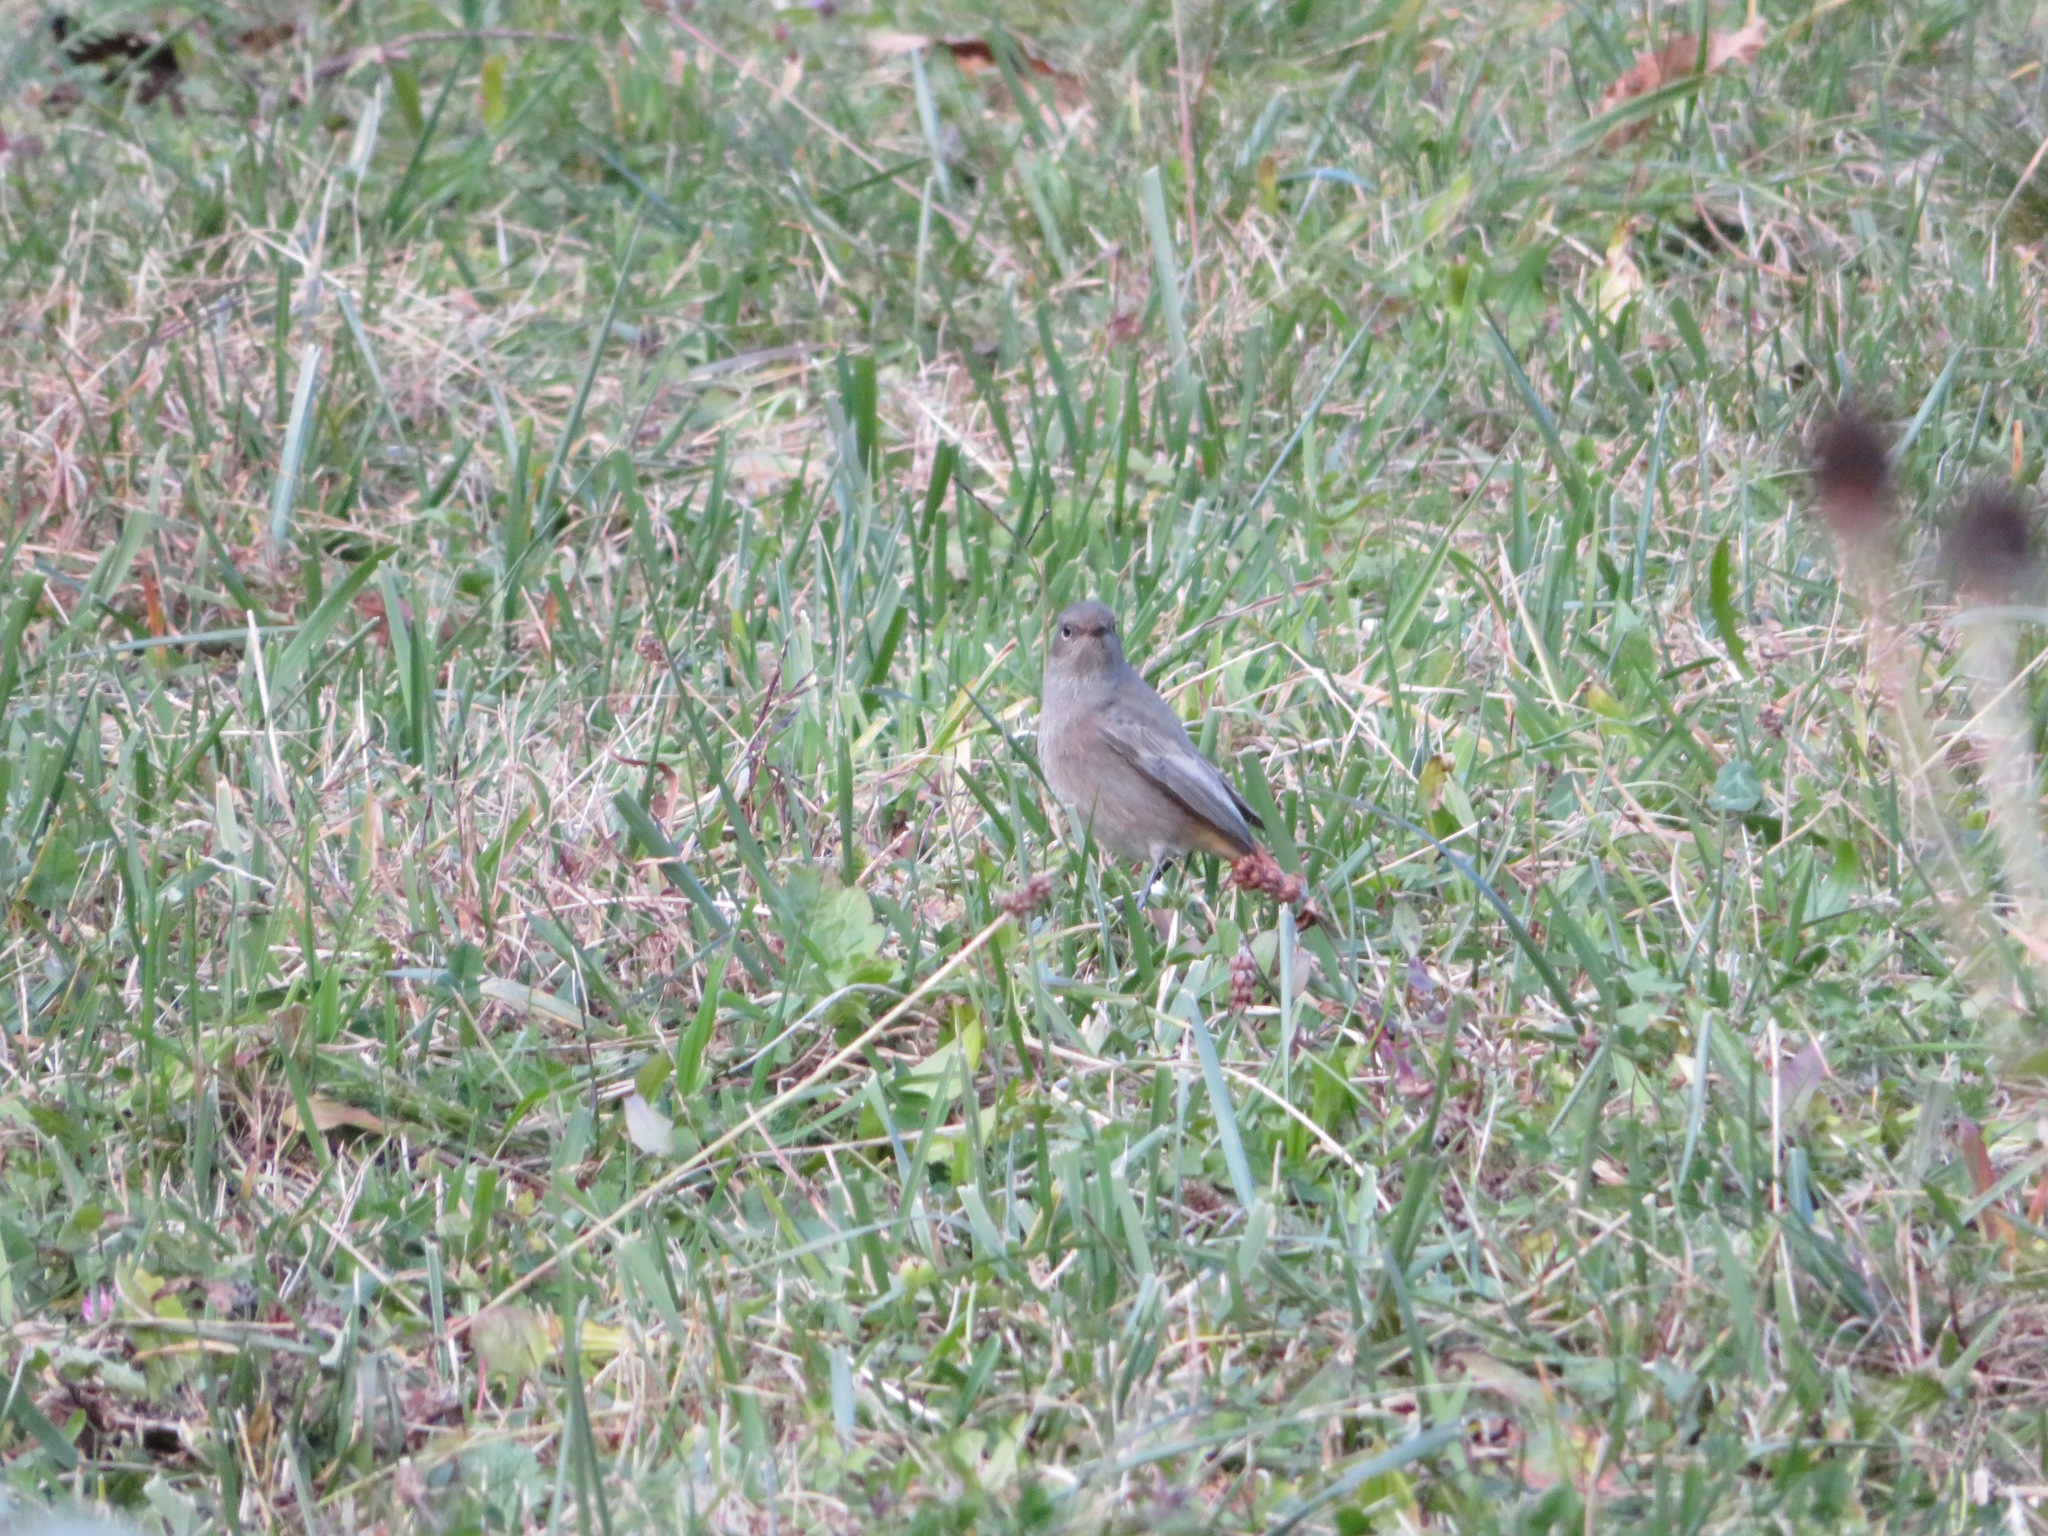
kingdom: Animalia
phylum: Chordata
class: Aves
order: Passeriformes
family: Muscicapidae
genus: Phoenicurus
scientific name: Phoenicurus ochruros
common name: Black redstart
